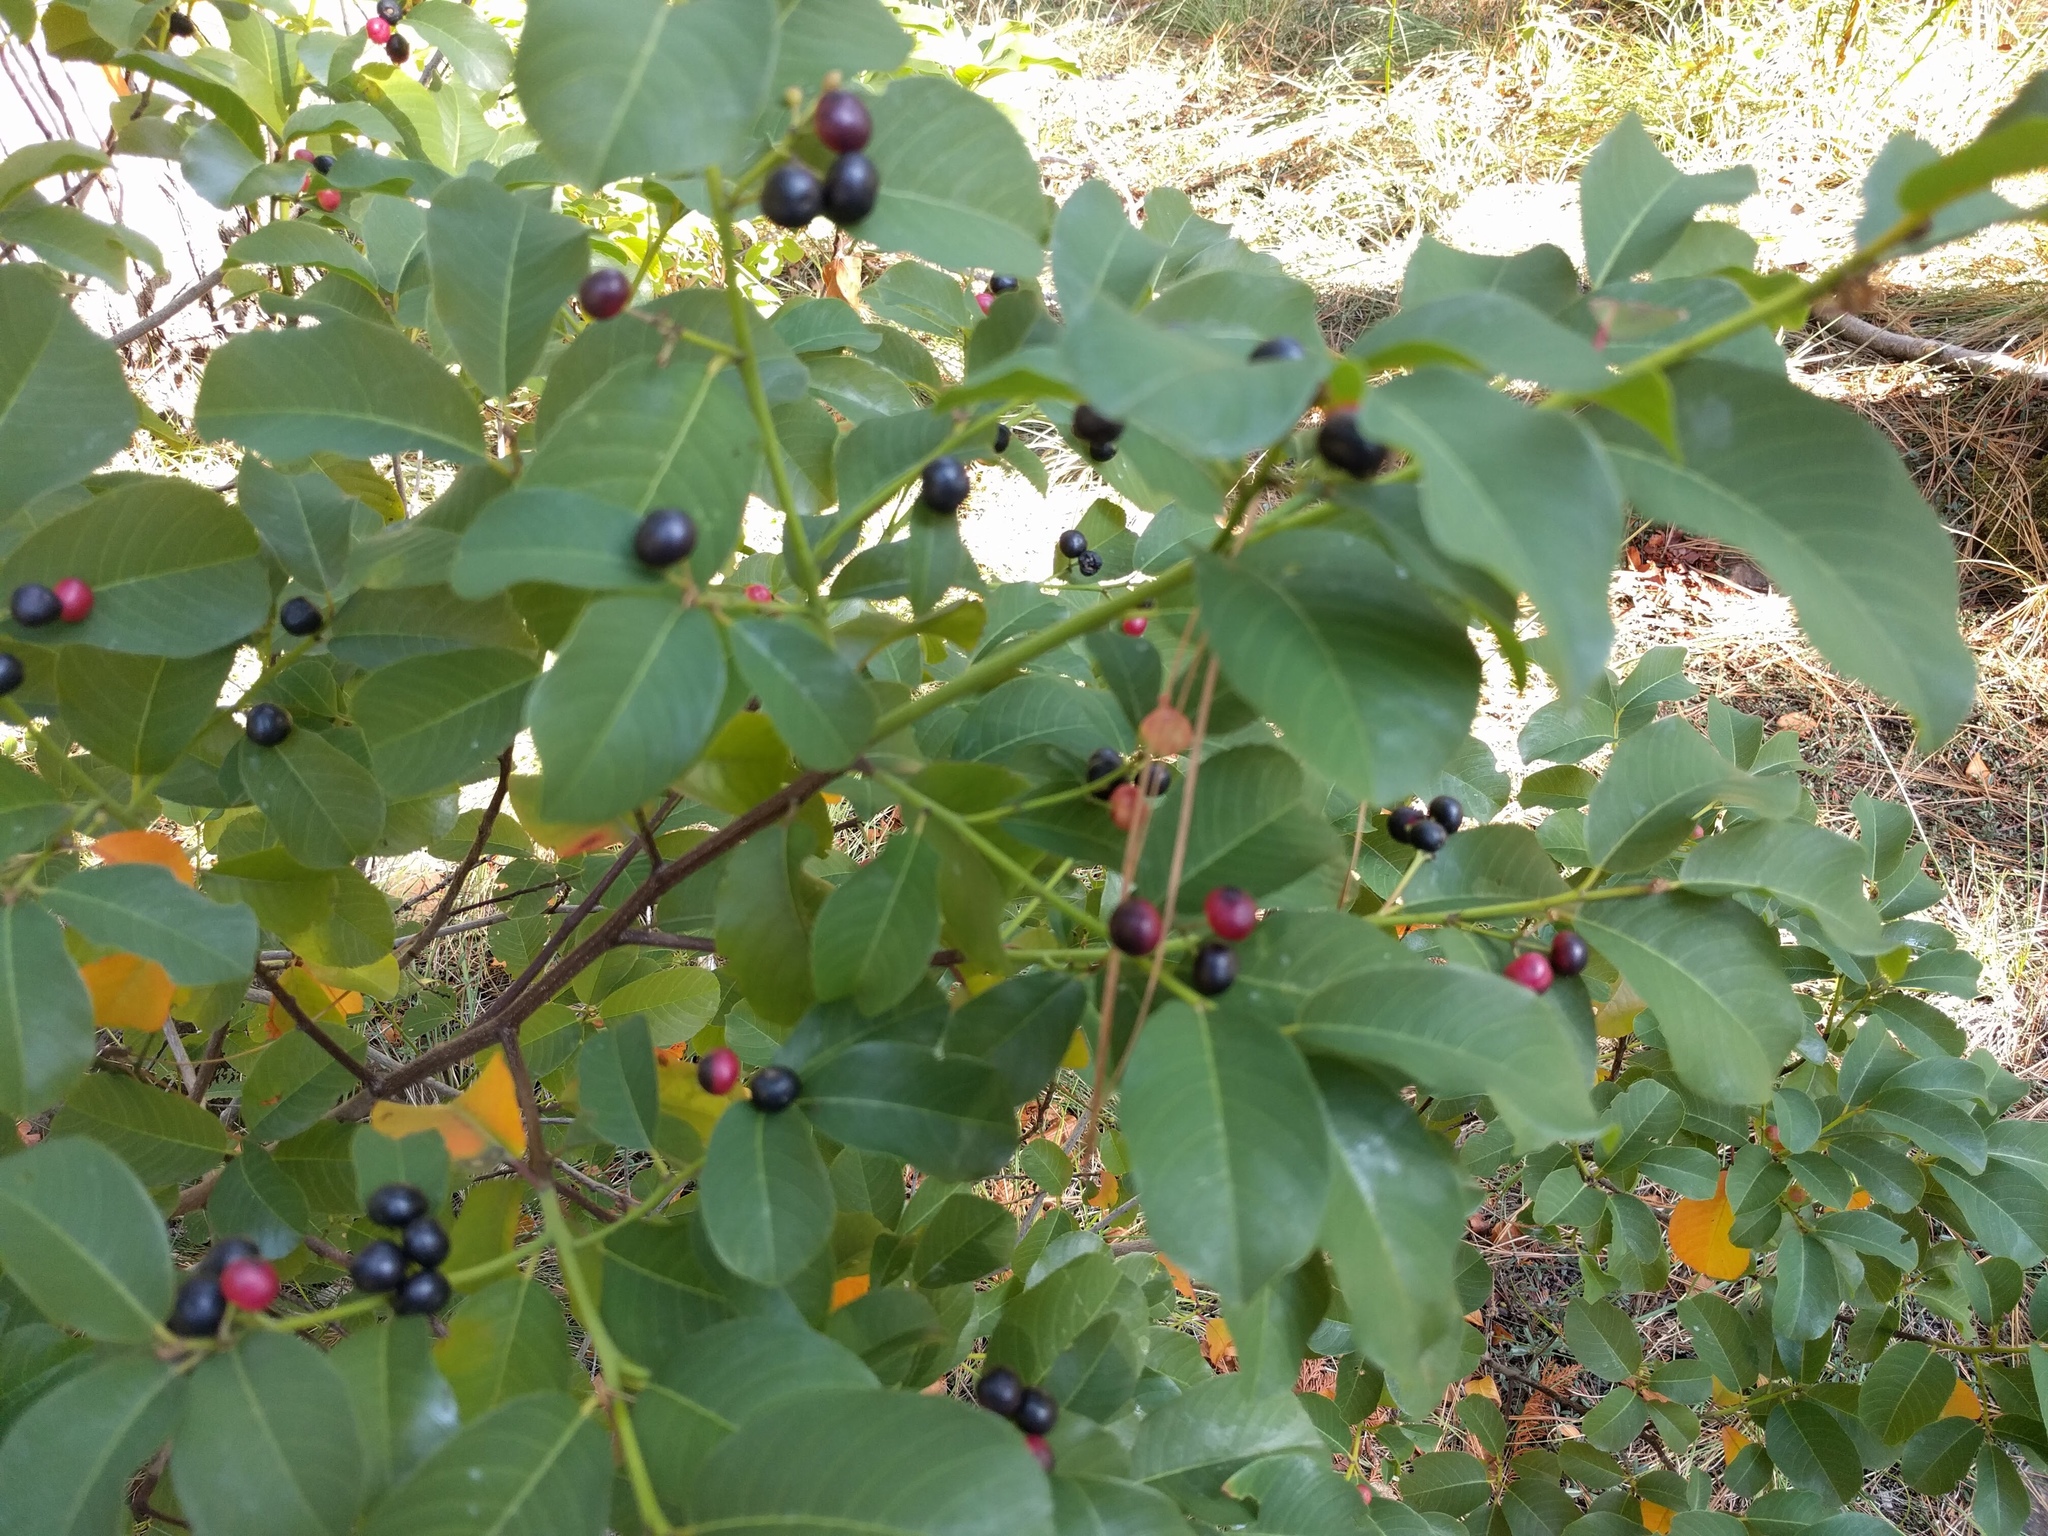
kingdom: Plantae
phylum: Tracheophyta
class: Magnoliopsida
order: Rosales
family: Rhamnaceae
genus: Frangula
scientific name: Frangula californica
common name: California buckthorn
